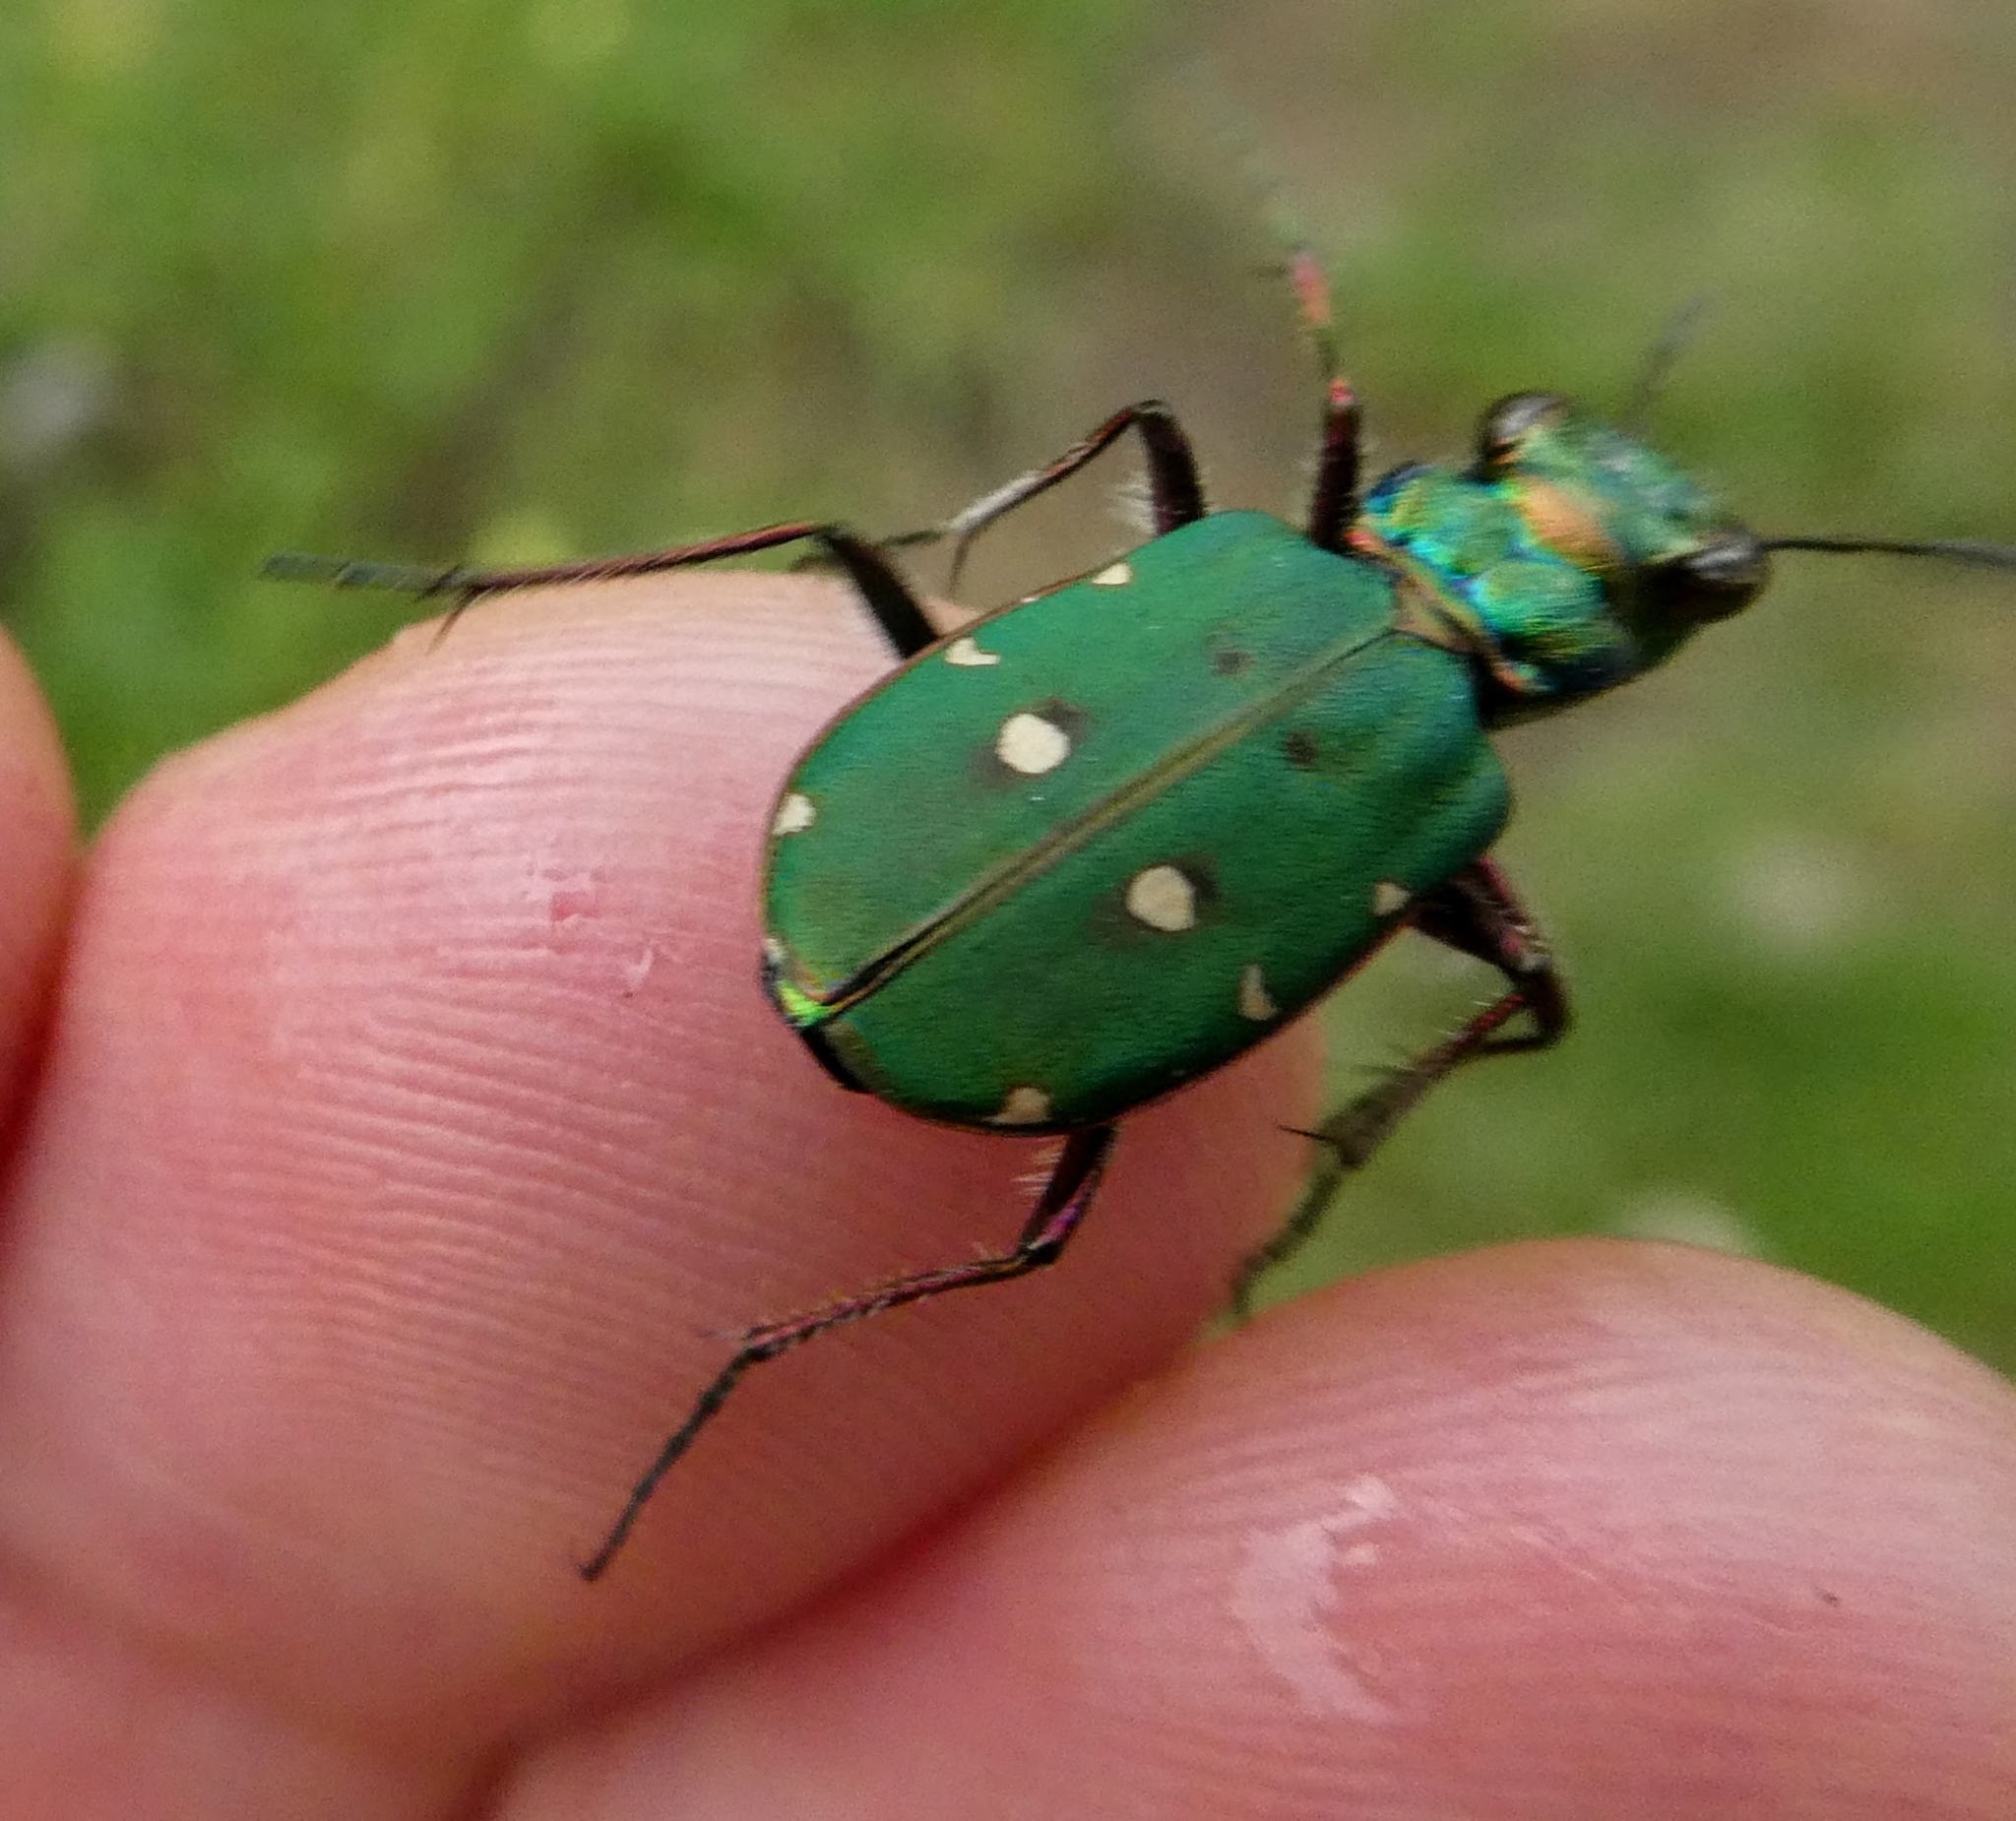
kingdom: Animalia
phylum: Arthropoda
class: Insecta
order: Coleoptera
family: Carabidae
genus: Cicindela
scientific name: Cicindela campestris
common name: Common tiger beetle
